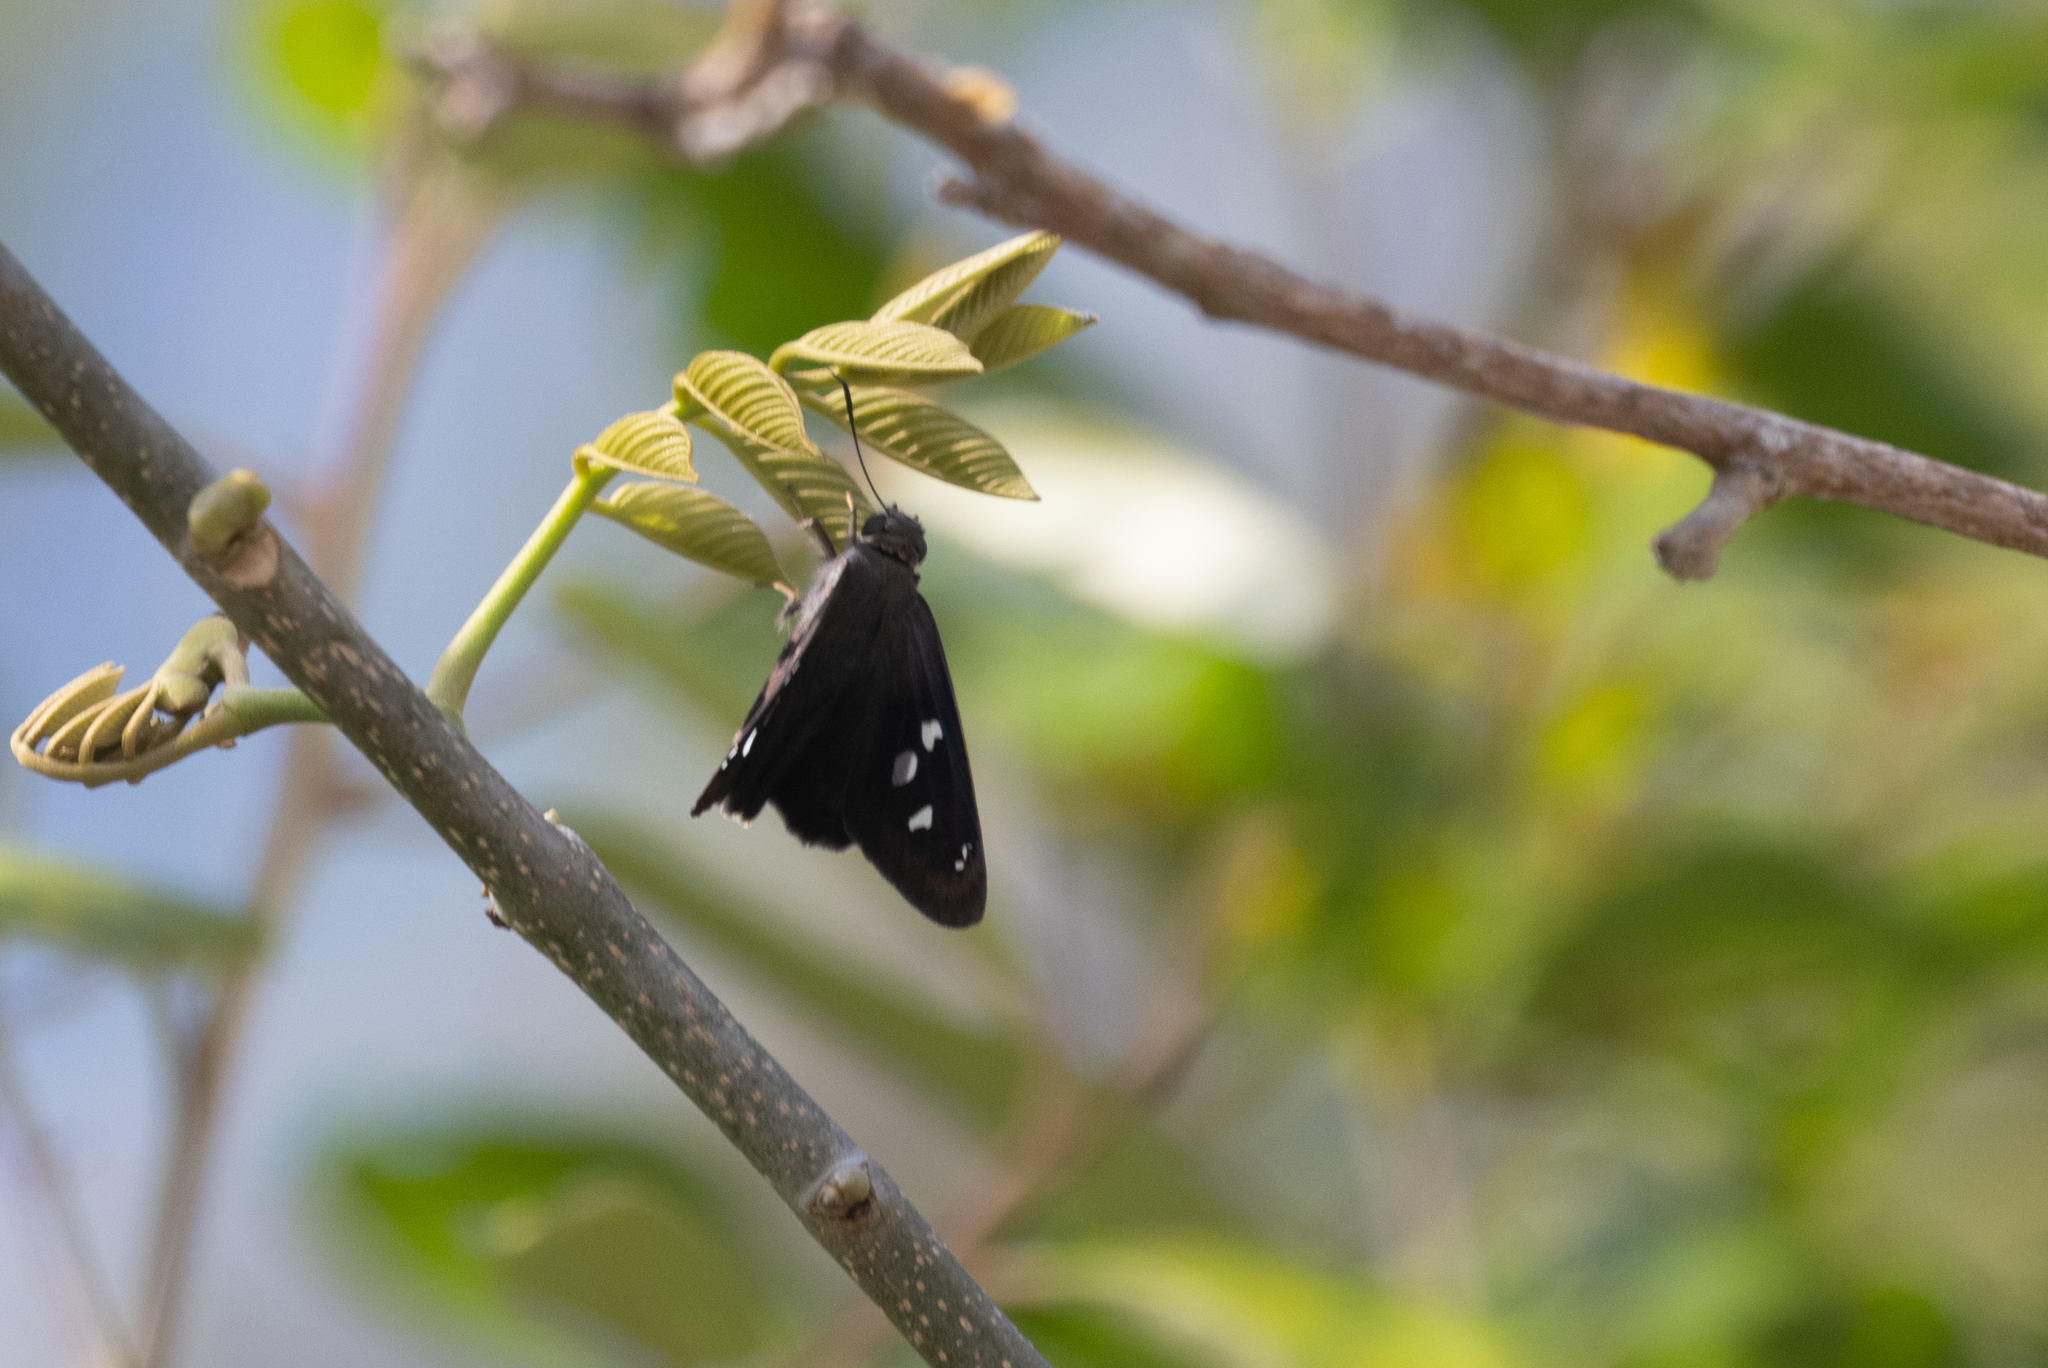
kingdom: Animalia
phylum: Arthropoda
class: Insecta
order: Lepidoptera
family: Hesperiidae
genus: Polygonus
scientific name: Polygonus leo
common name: Hammoch skipper
